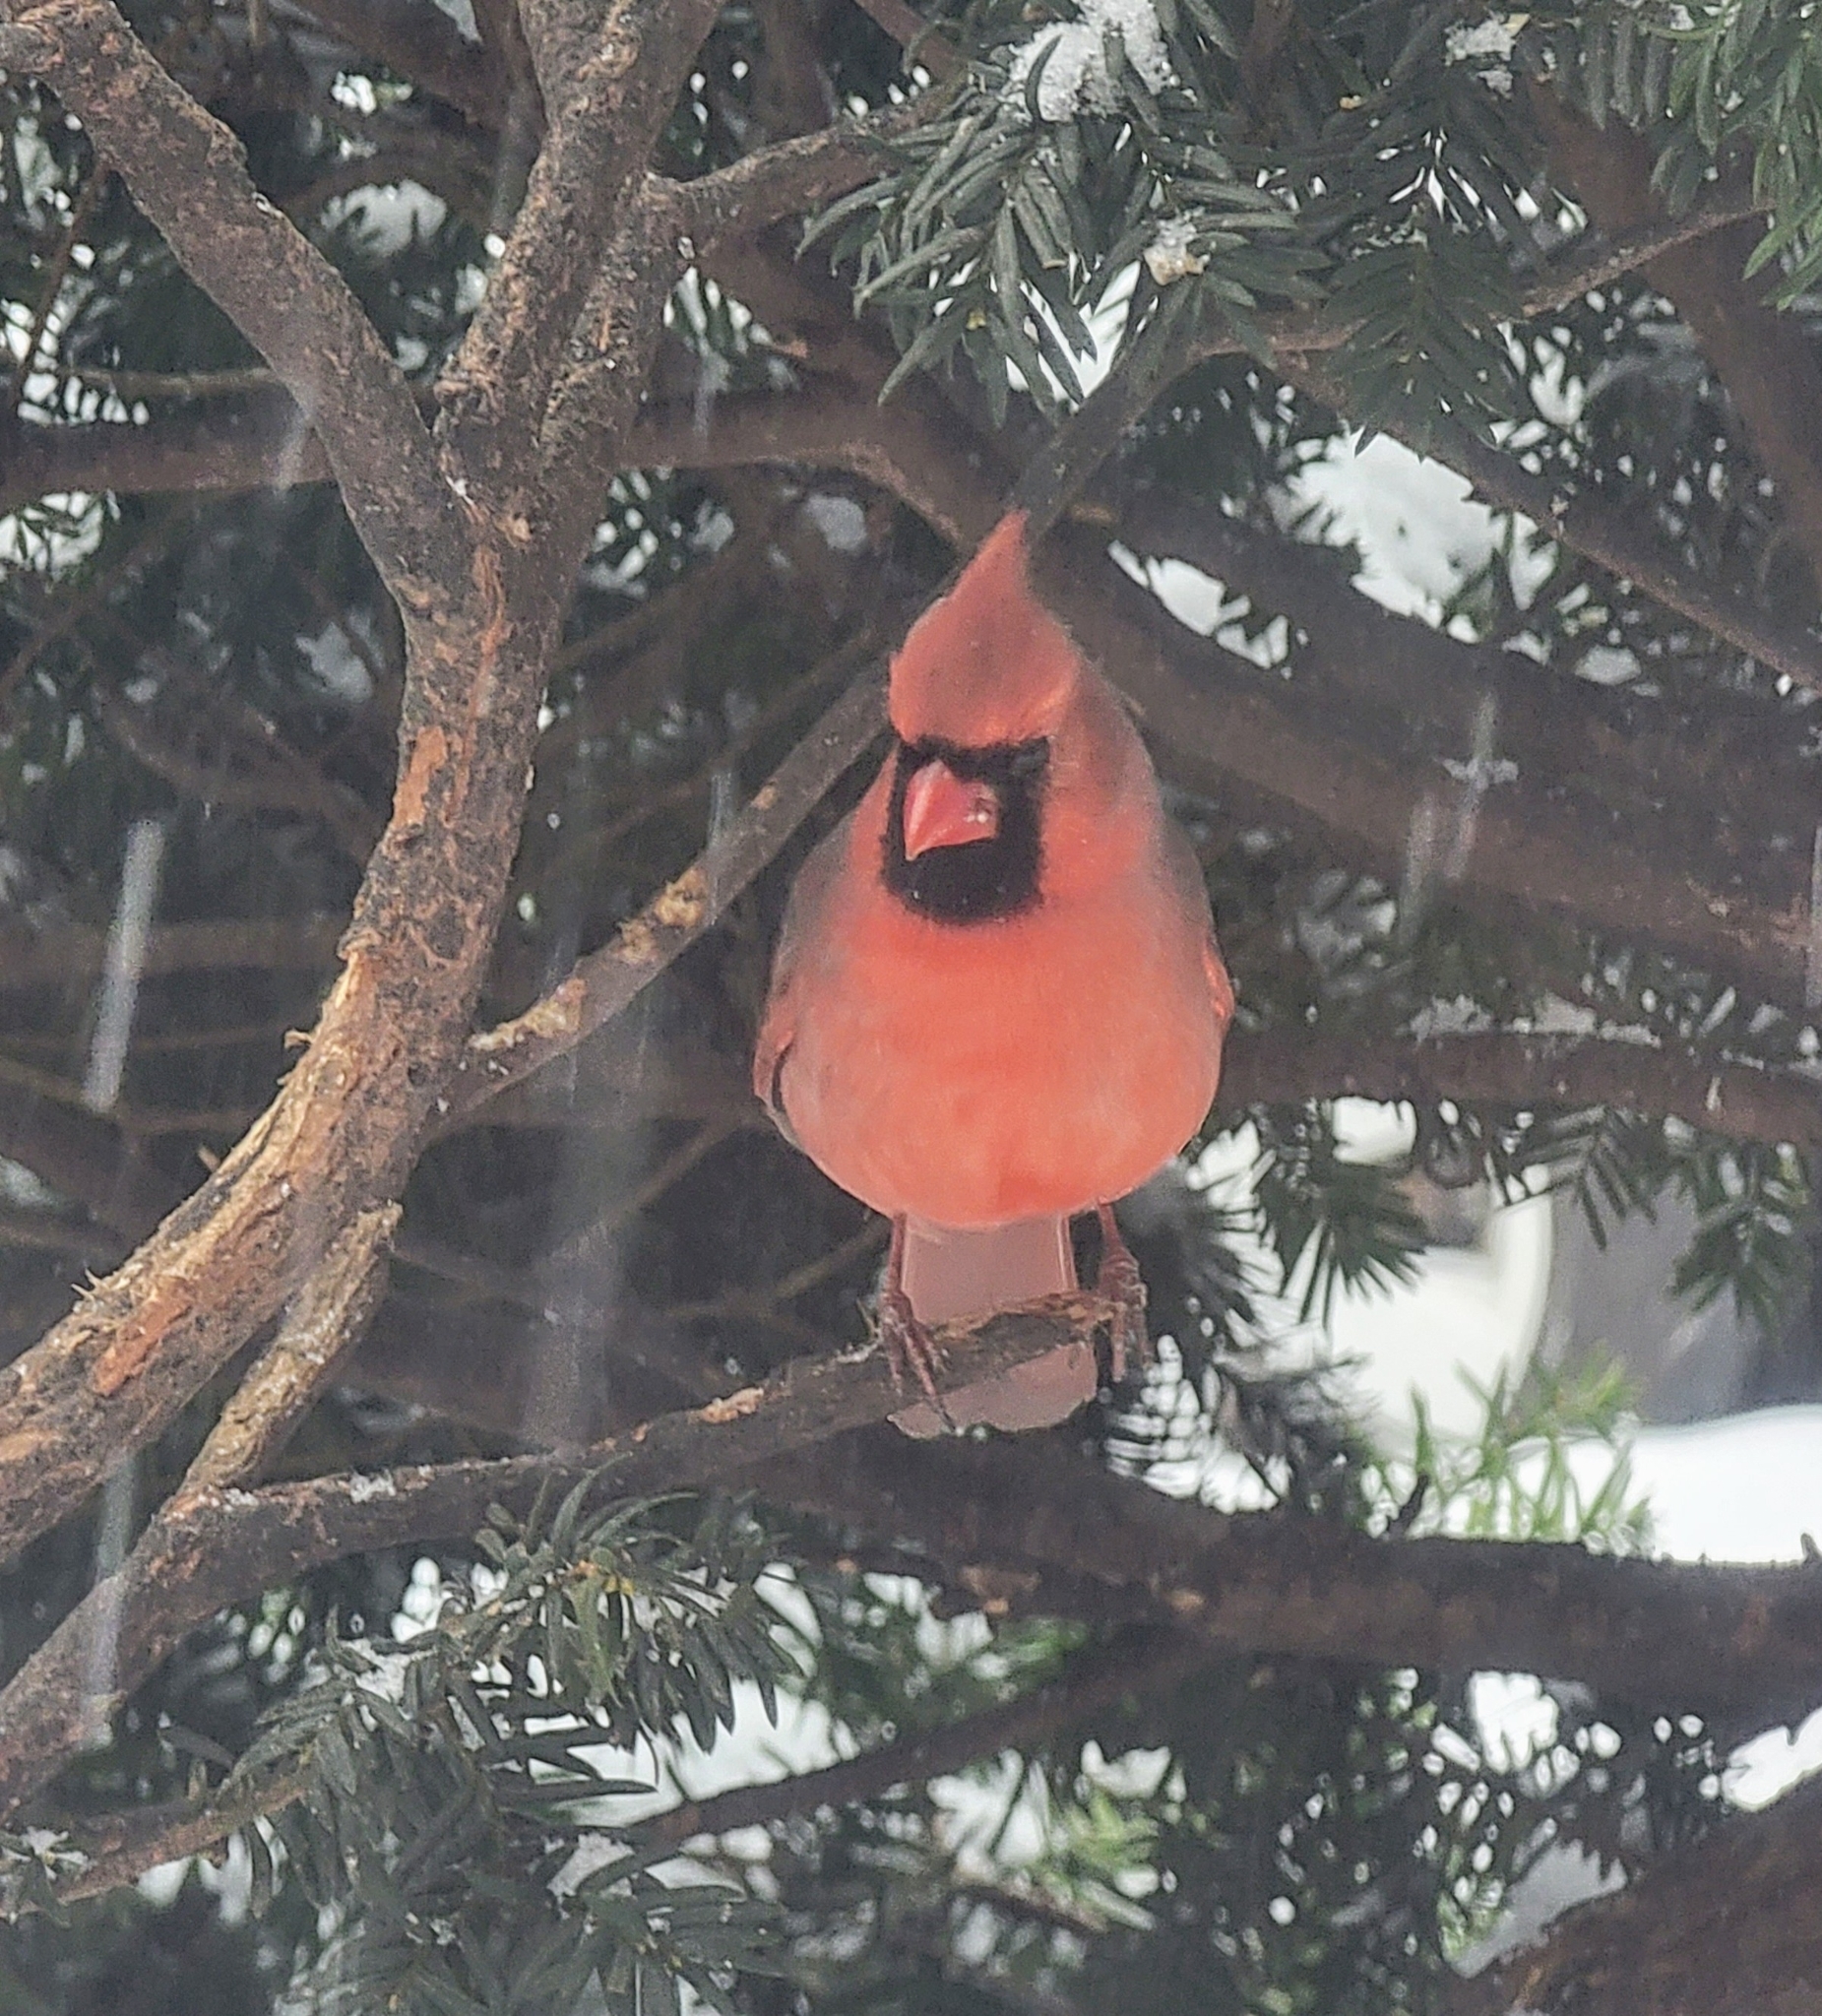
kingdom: Animalia
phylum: Chordata
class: Aves
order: Passeriformes
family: Cardinalidae
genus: Cardinalis
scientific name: Cardinalis cardinalis
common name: Northern cardinal
